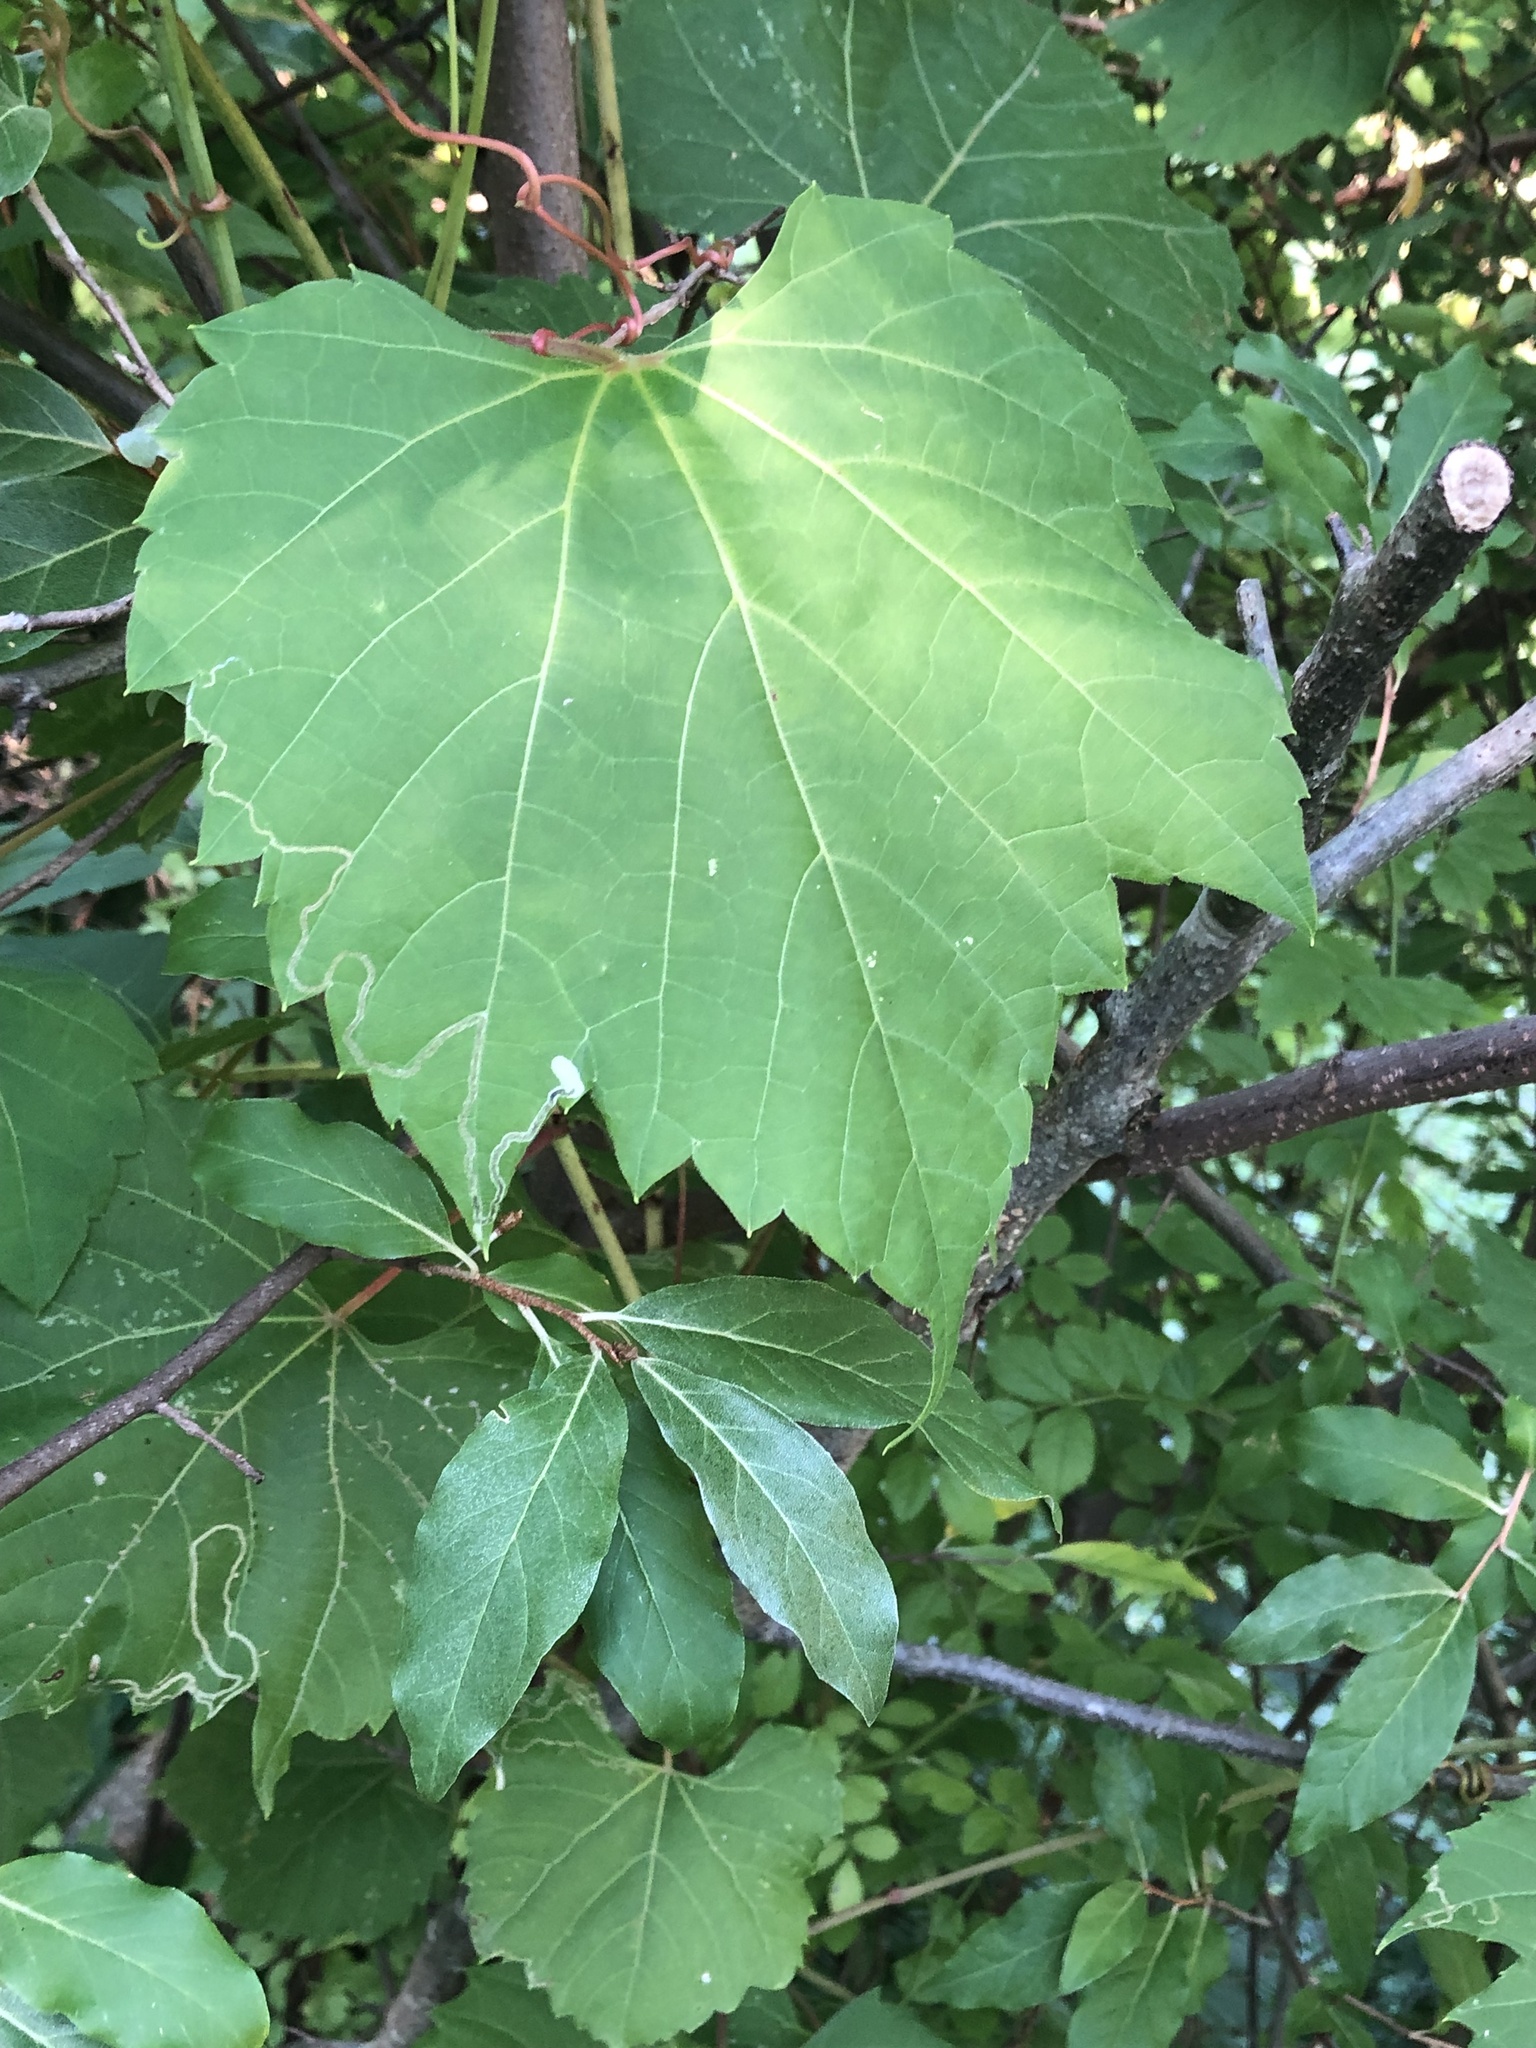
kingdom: Plantae
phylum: Tracheophyta
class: Magnoliopsida
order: Vitales
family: Vitaceae
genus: Vitis
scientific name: Vitis riparia
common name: Frost grape
